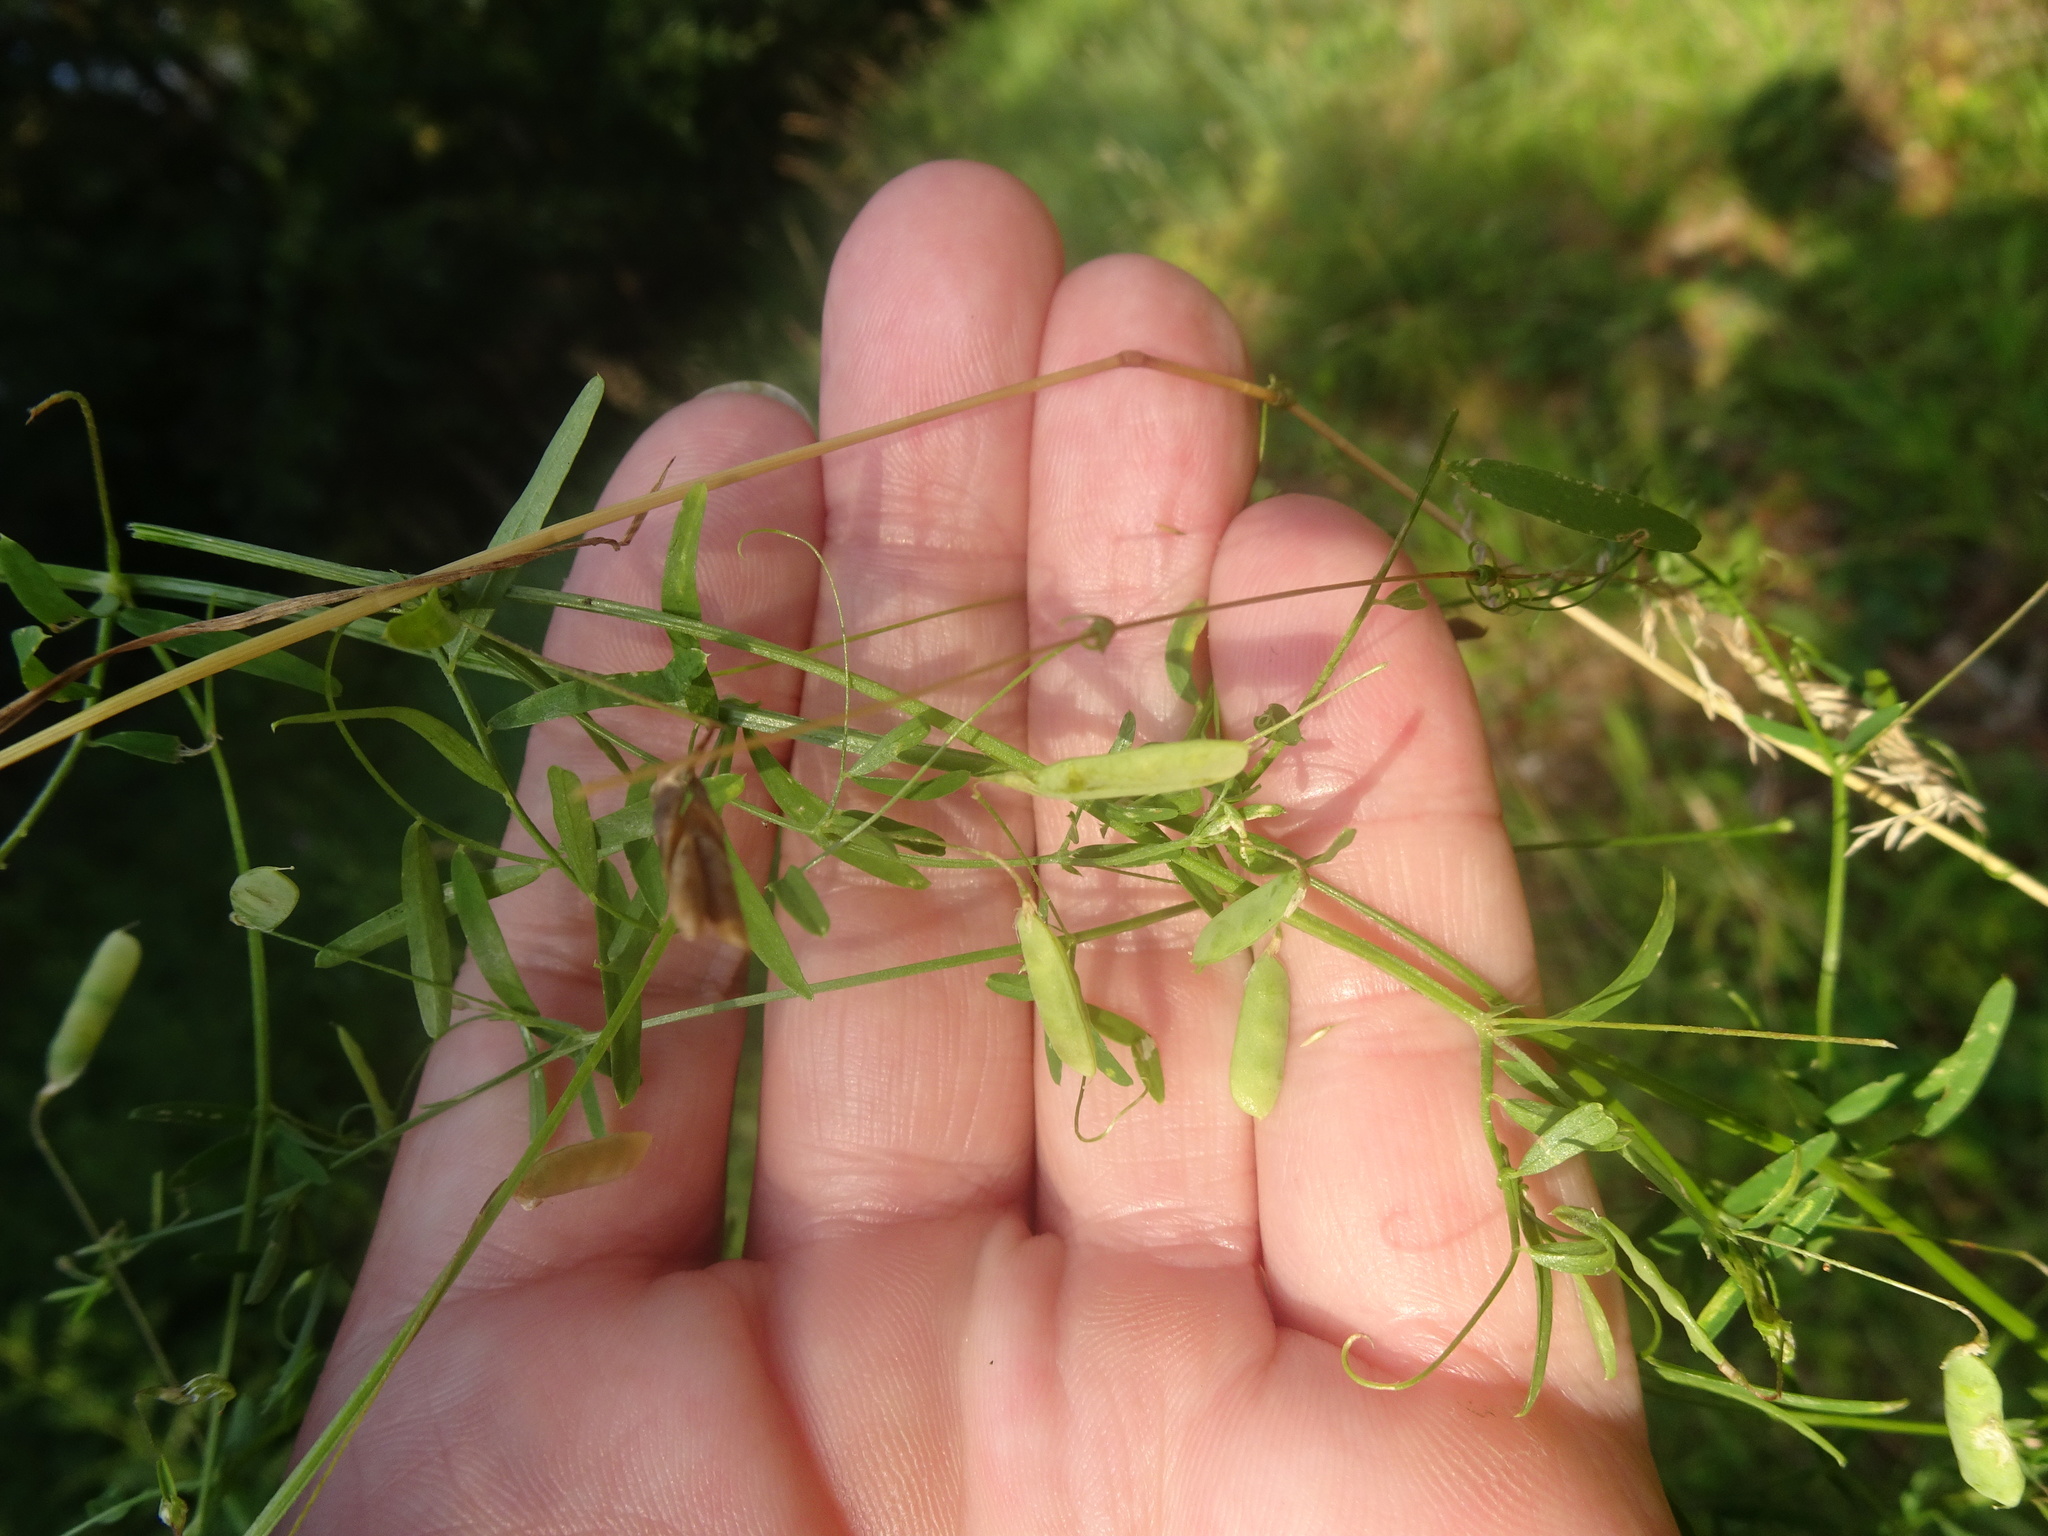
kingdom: Plantae
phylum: Tracheophyta
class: Magnoliopsida
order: Fabales
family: Fabaceae
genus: Vicia
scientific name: Vicia tetrasperma
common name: Smooth tare
